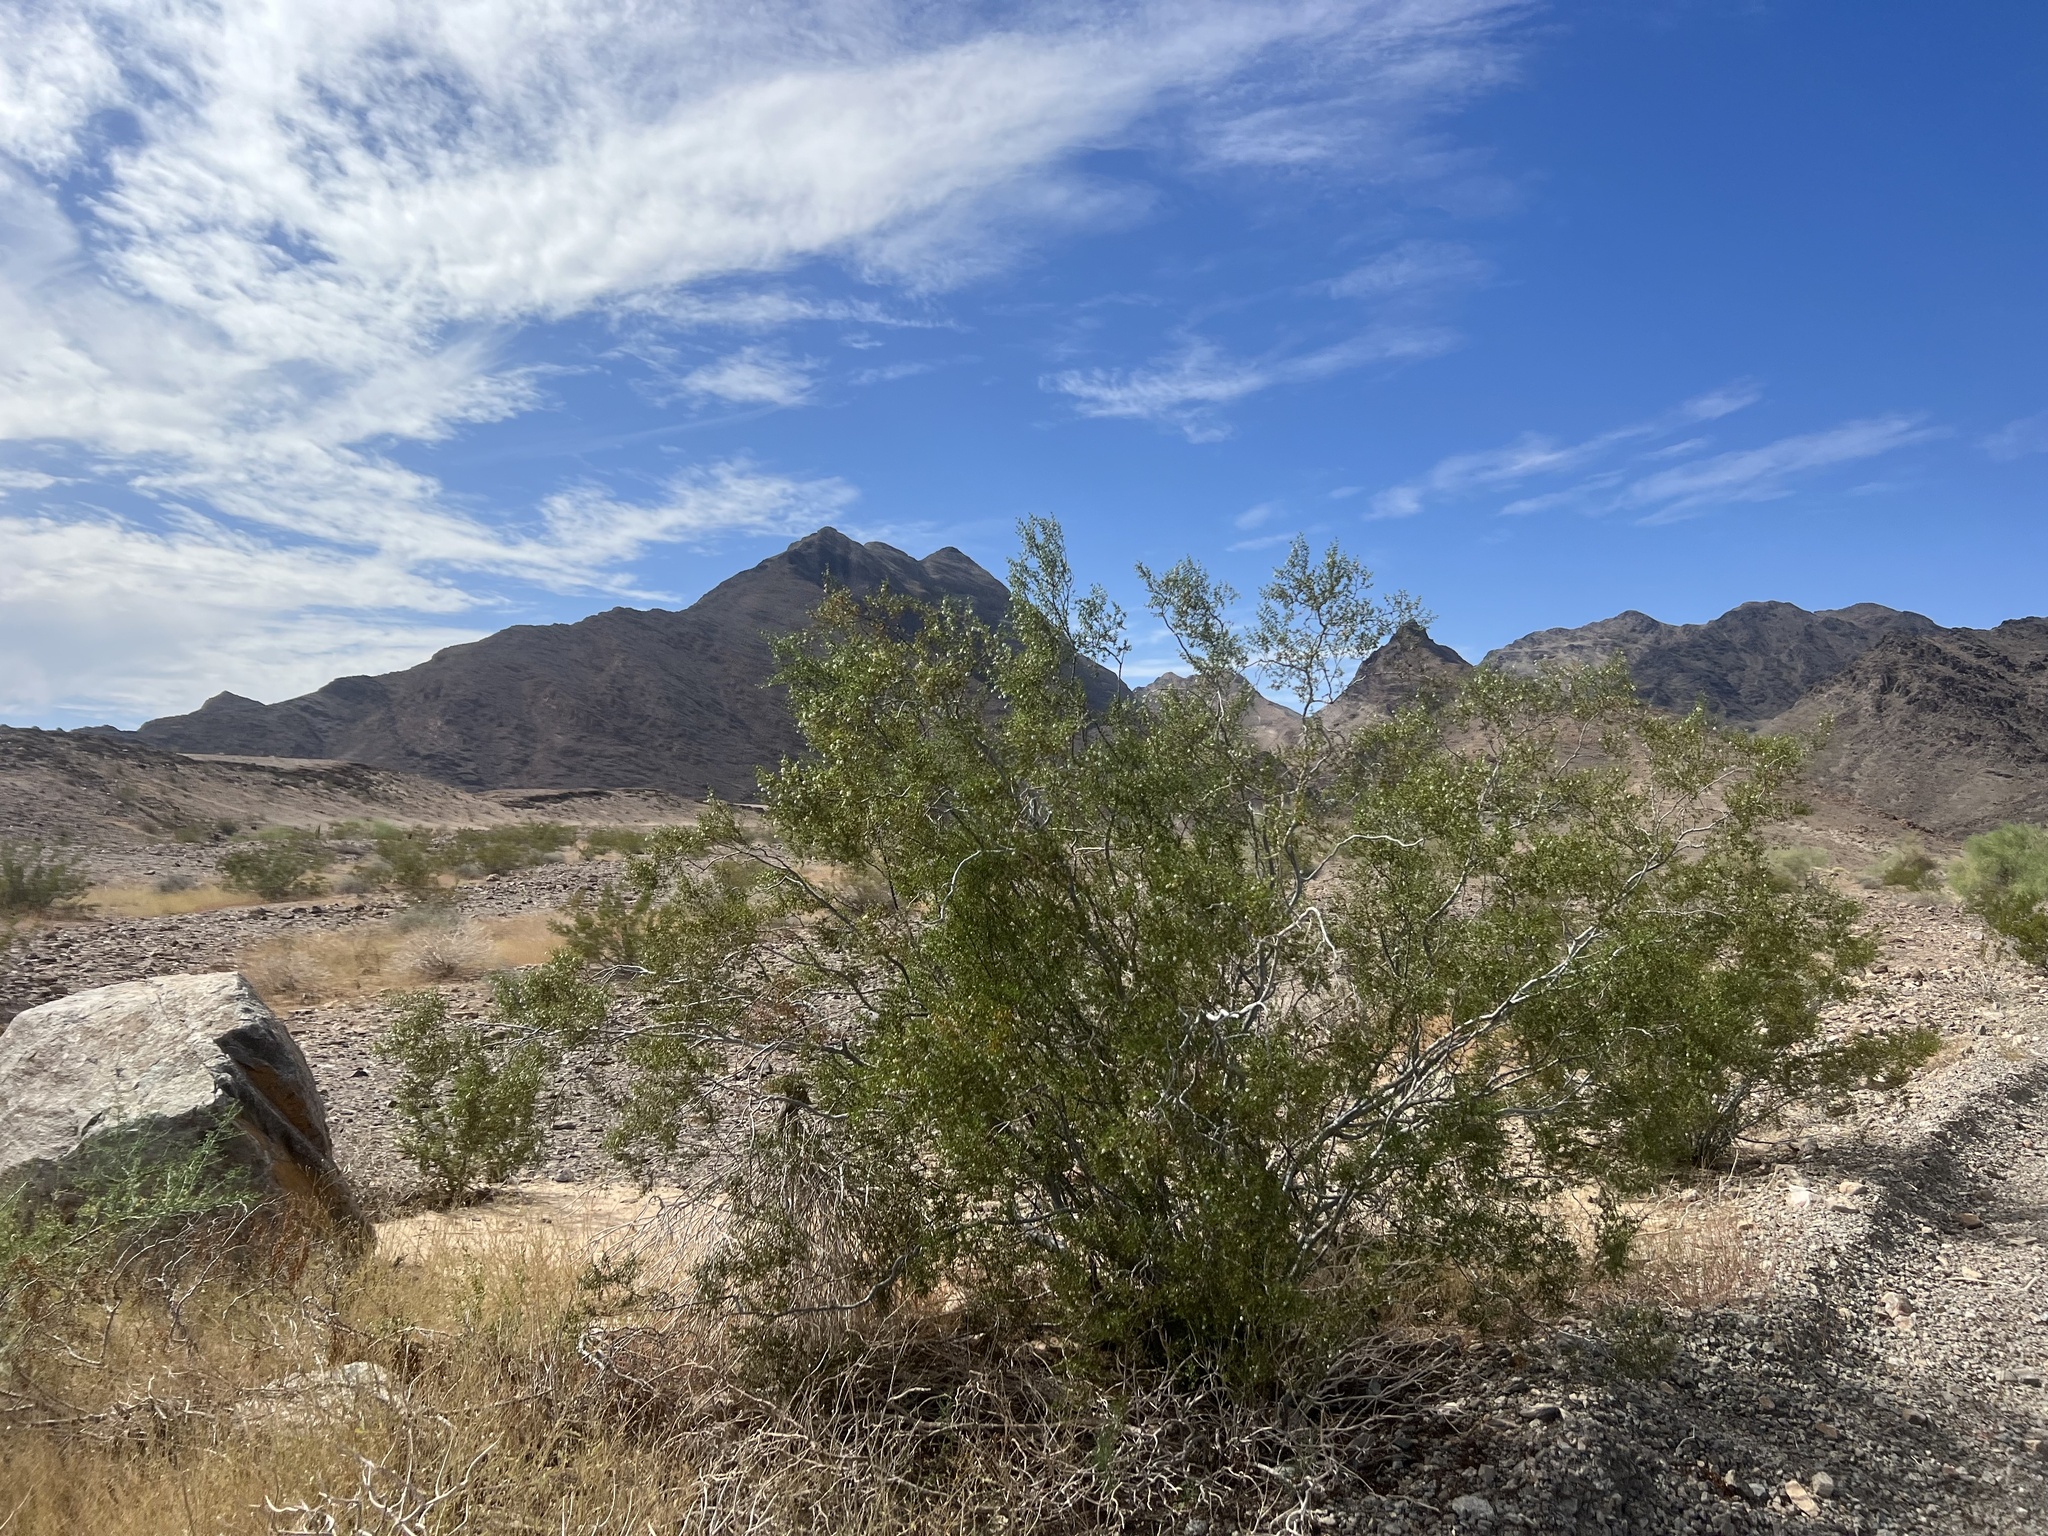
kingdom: Plantae
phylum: Tracheophyta
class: Magnoliopsida
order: Zygophyllales
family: Zygophyllaceae
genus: Larrea
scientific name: Larrea tridentata
